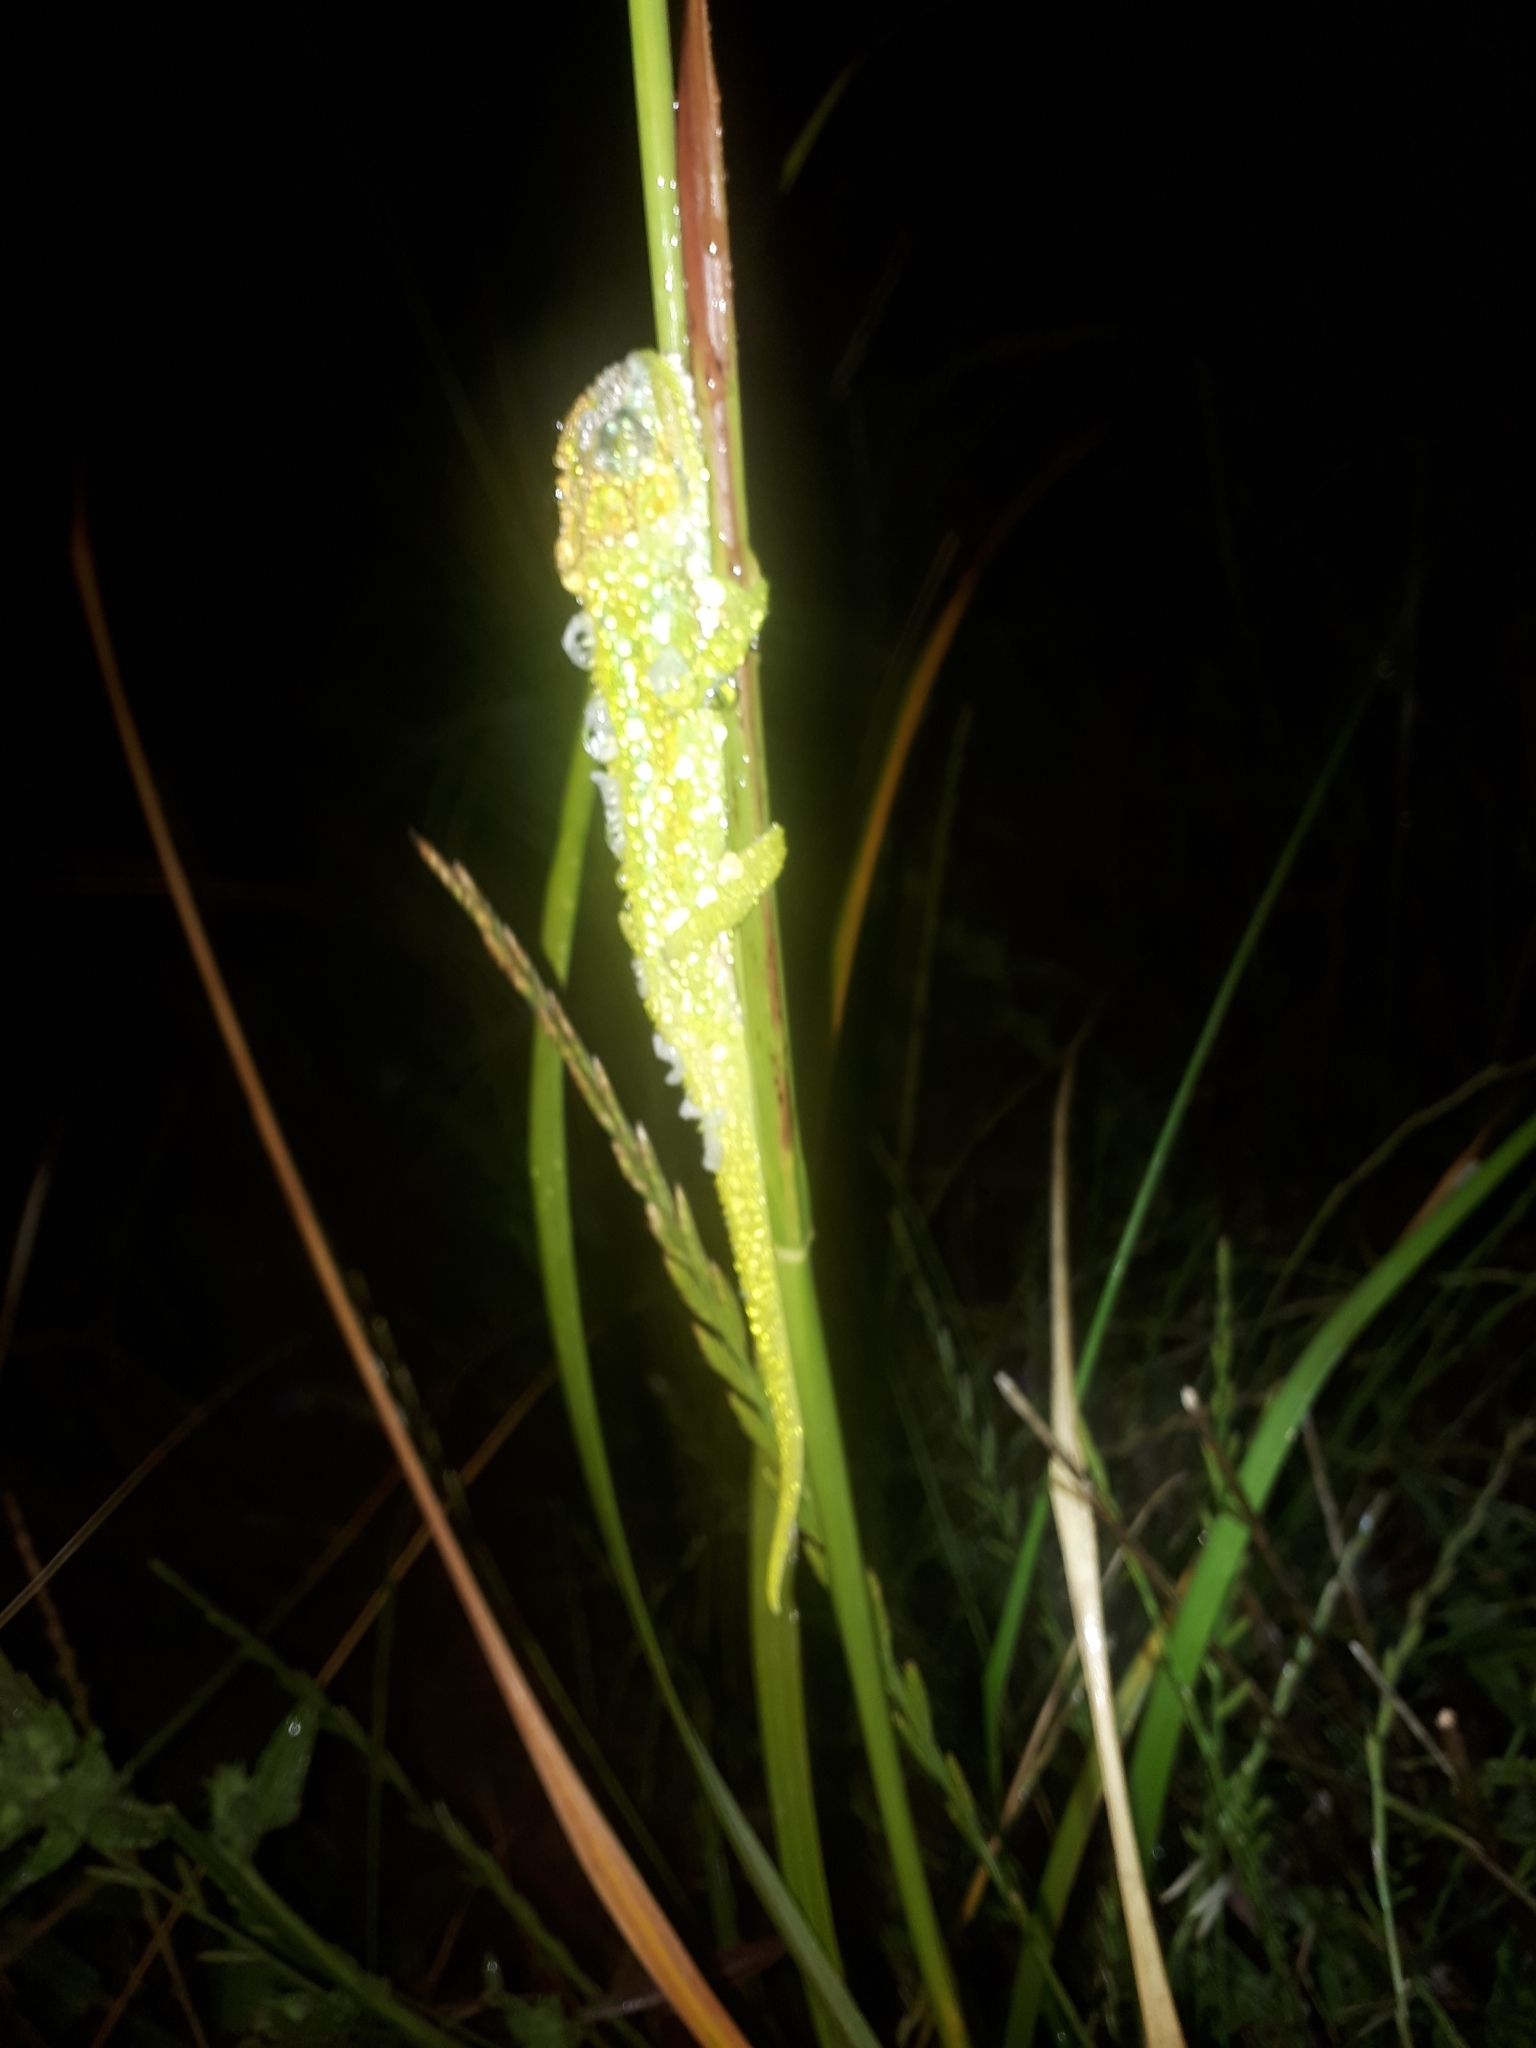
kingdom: Animalia
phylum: Chordata
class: Squamata
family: Chamaeleonidae
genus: Bradypodion
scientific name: Bradypodion pumilum
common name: Cape dwarf chameleon
